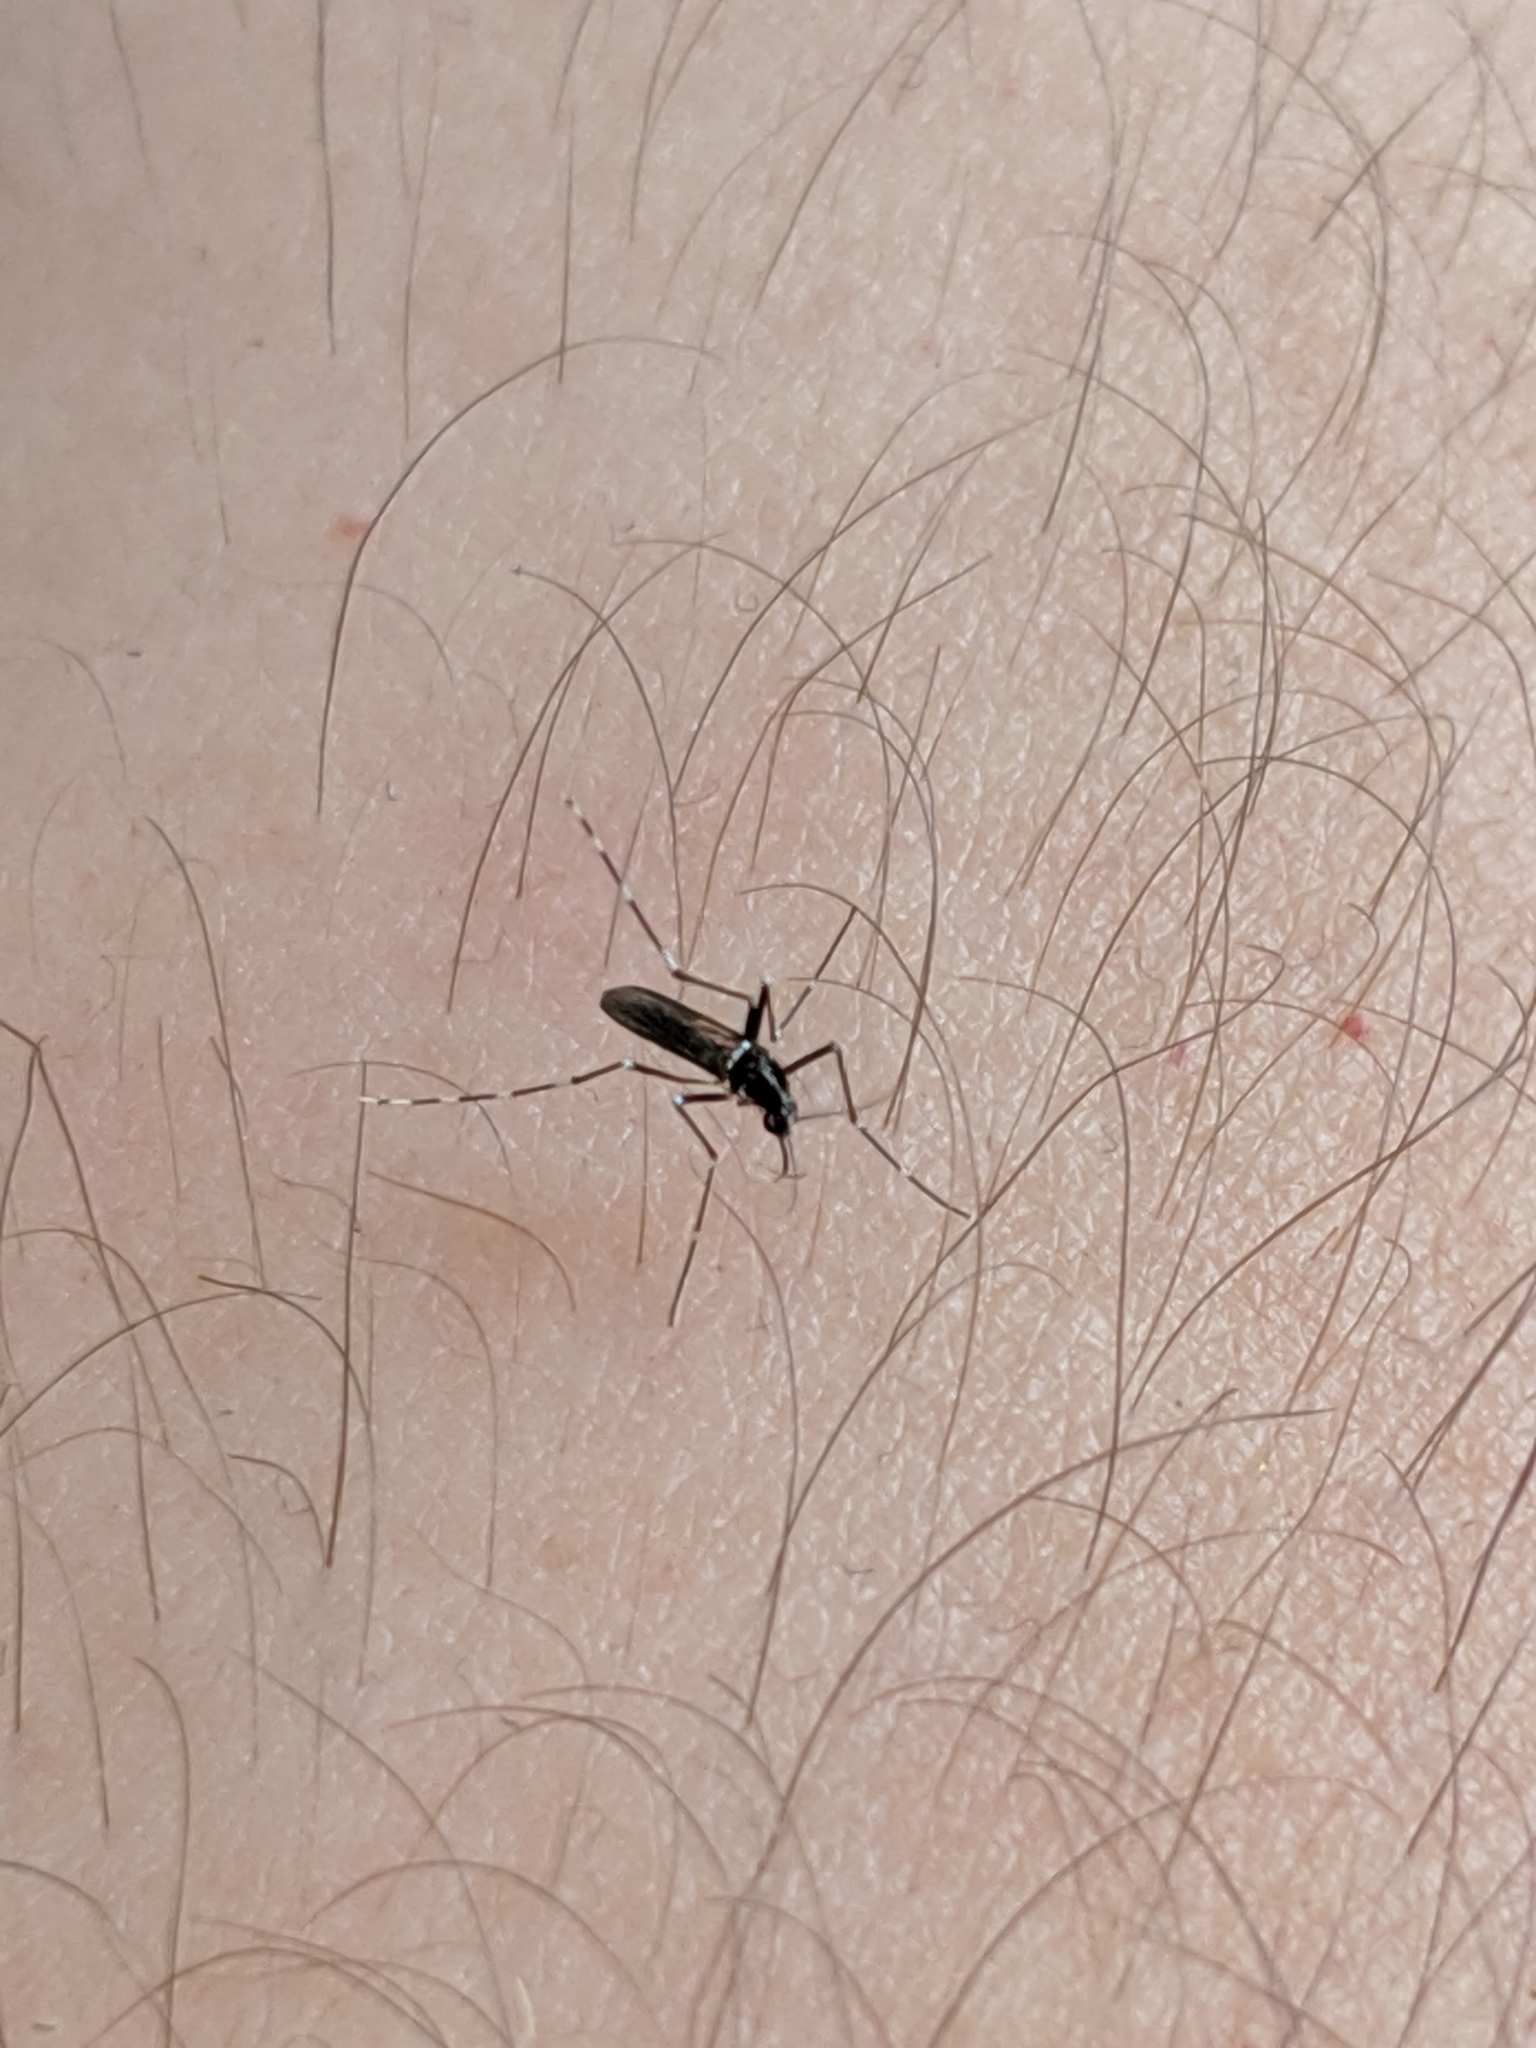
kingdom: Animalia
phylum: Arthropoda
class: Insecta
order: Diptera
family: Culicidae
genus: Aedes
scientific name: Aedes albopictus
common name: Tiger mosquito
